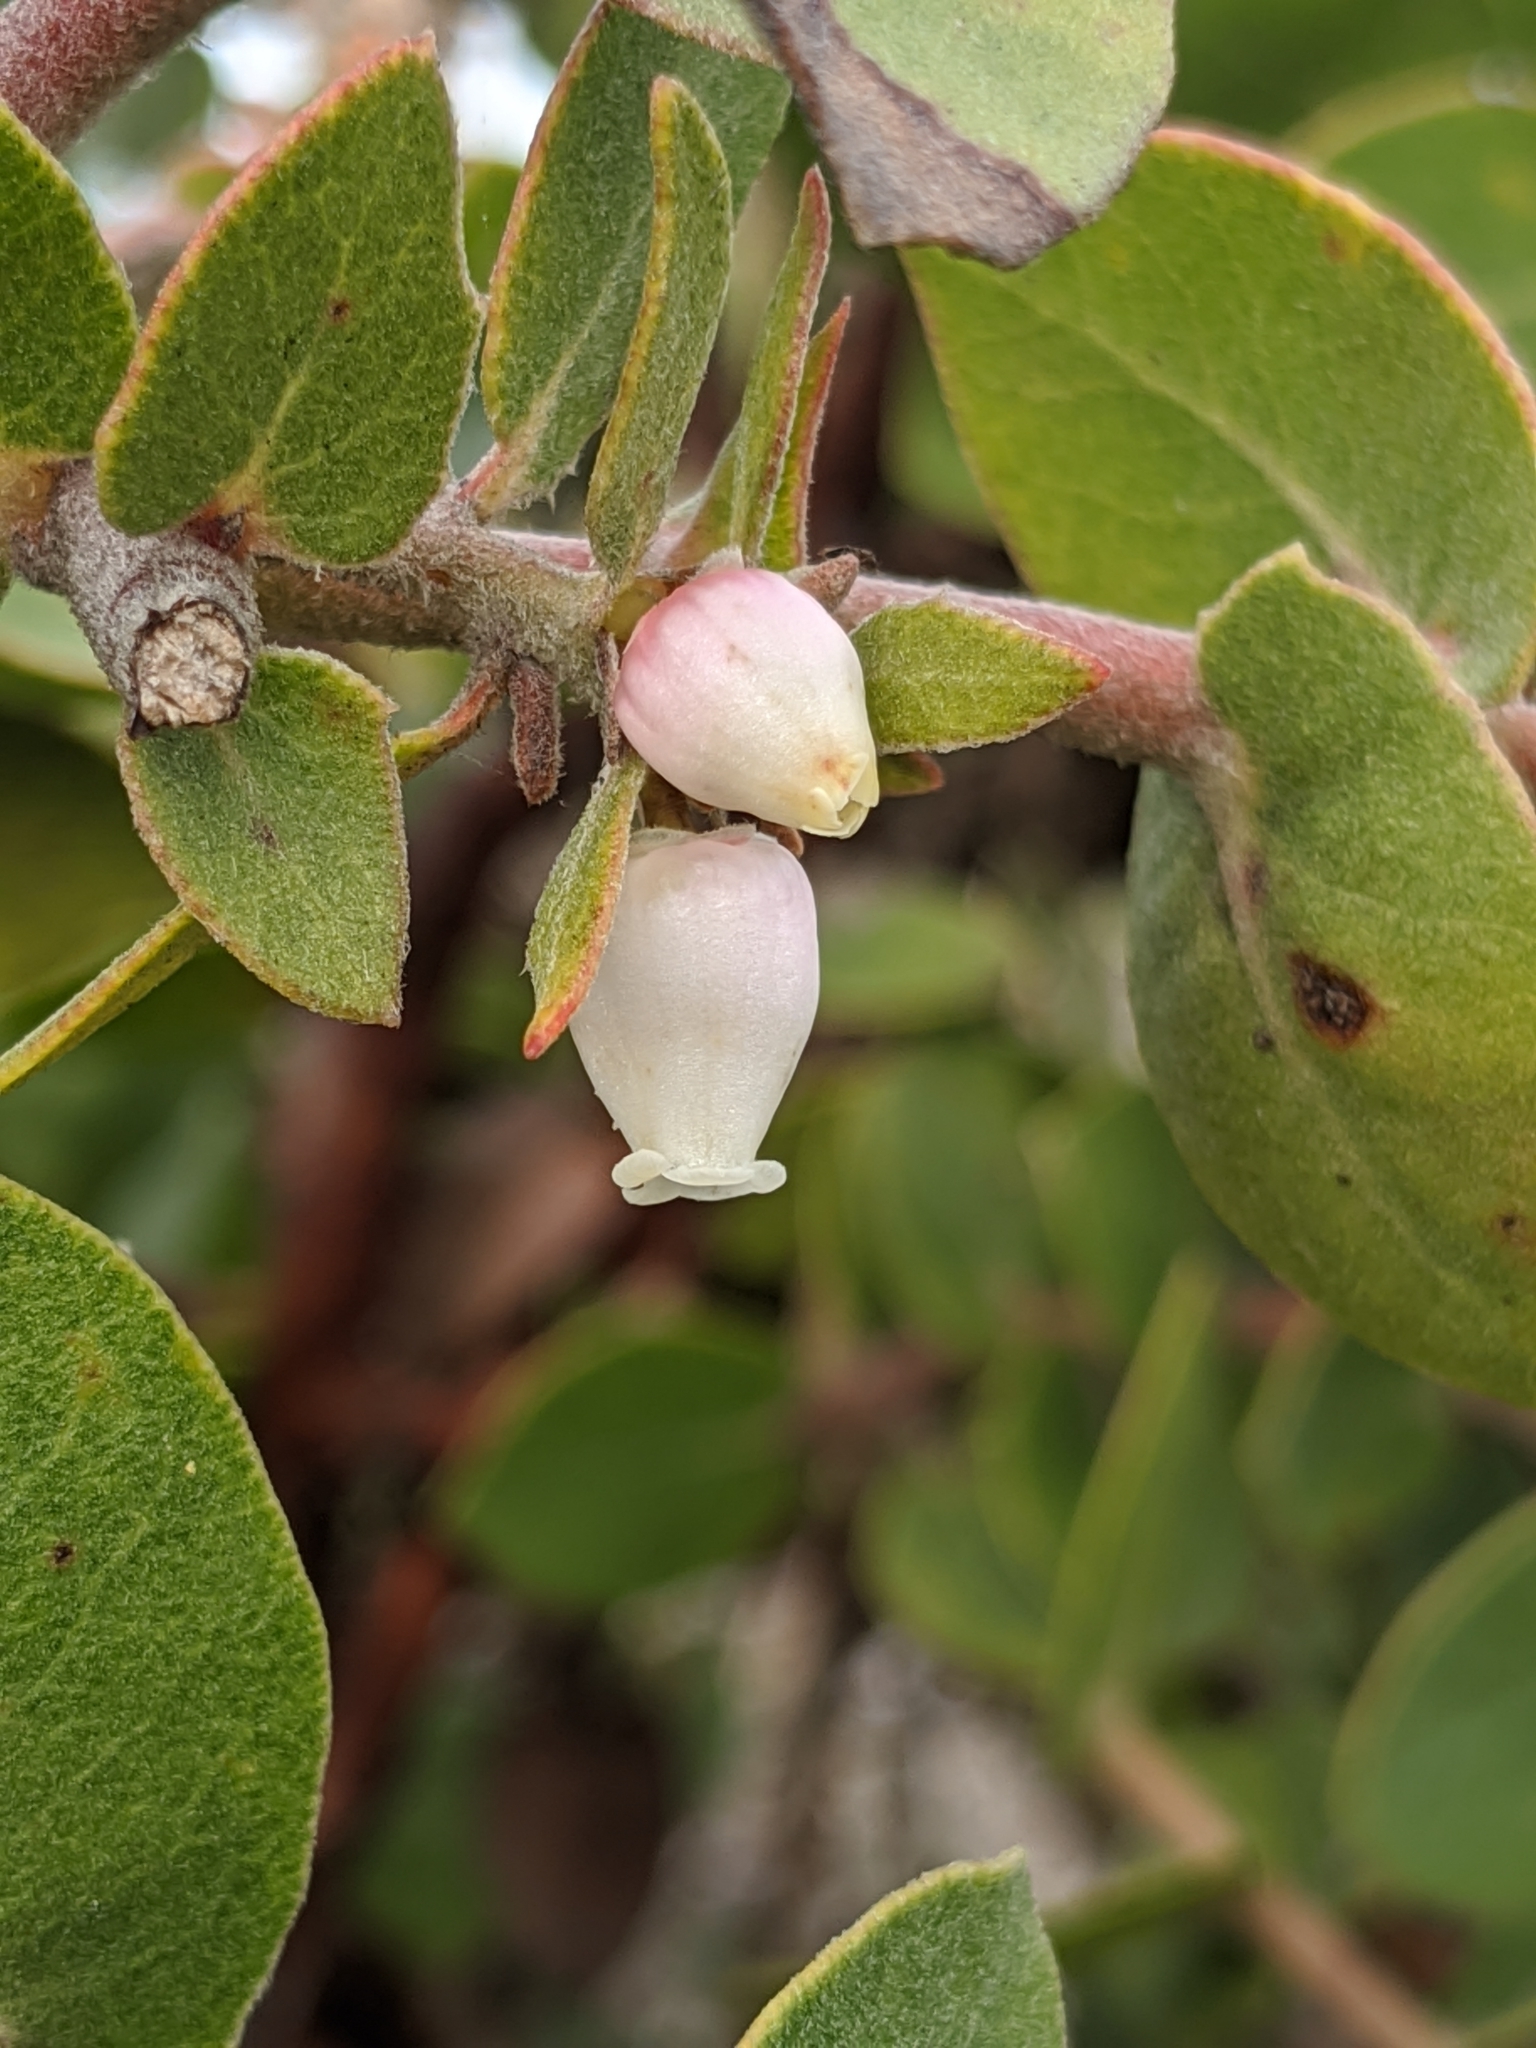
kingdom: Plantae
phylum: Tracheophyta
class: Magnoliopsida
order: Ericales
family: Ericaceae
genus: Arctostaphylos
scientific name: Arctostaphylos cruzensis
